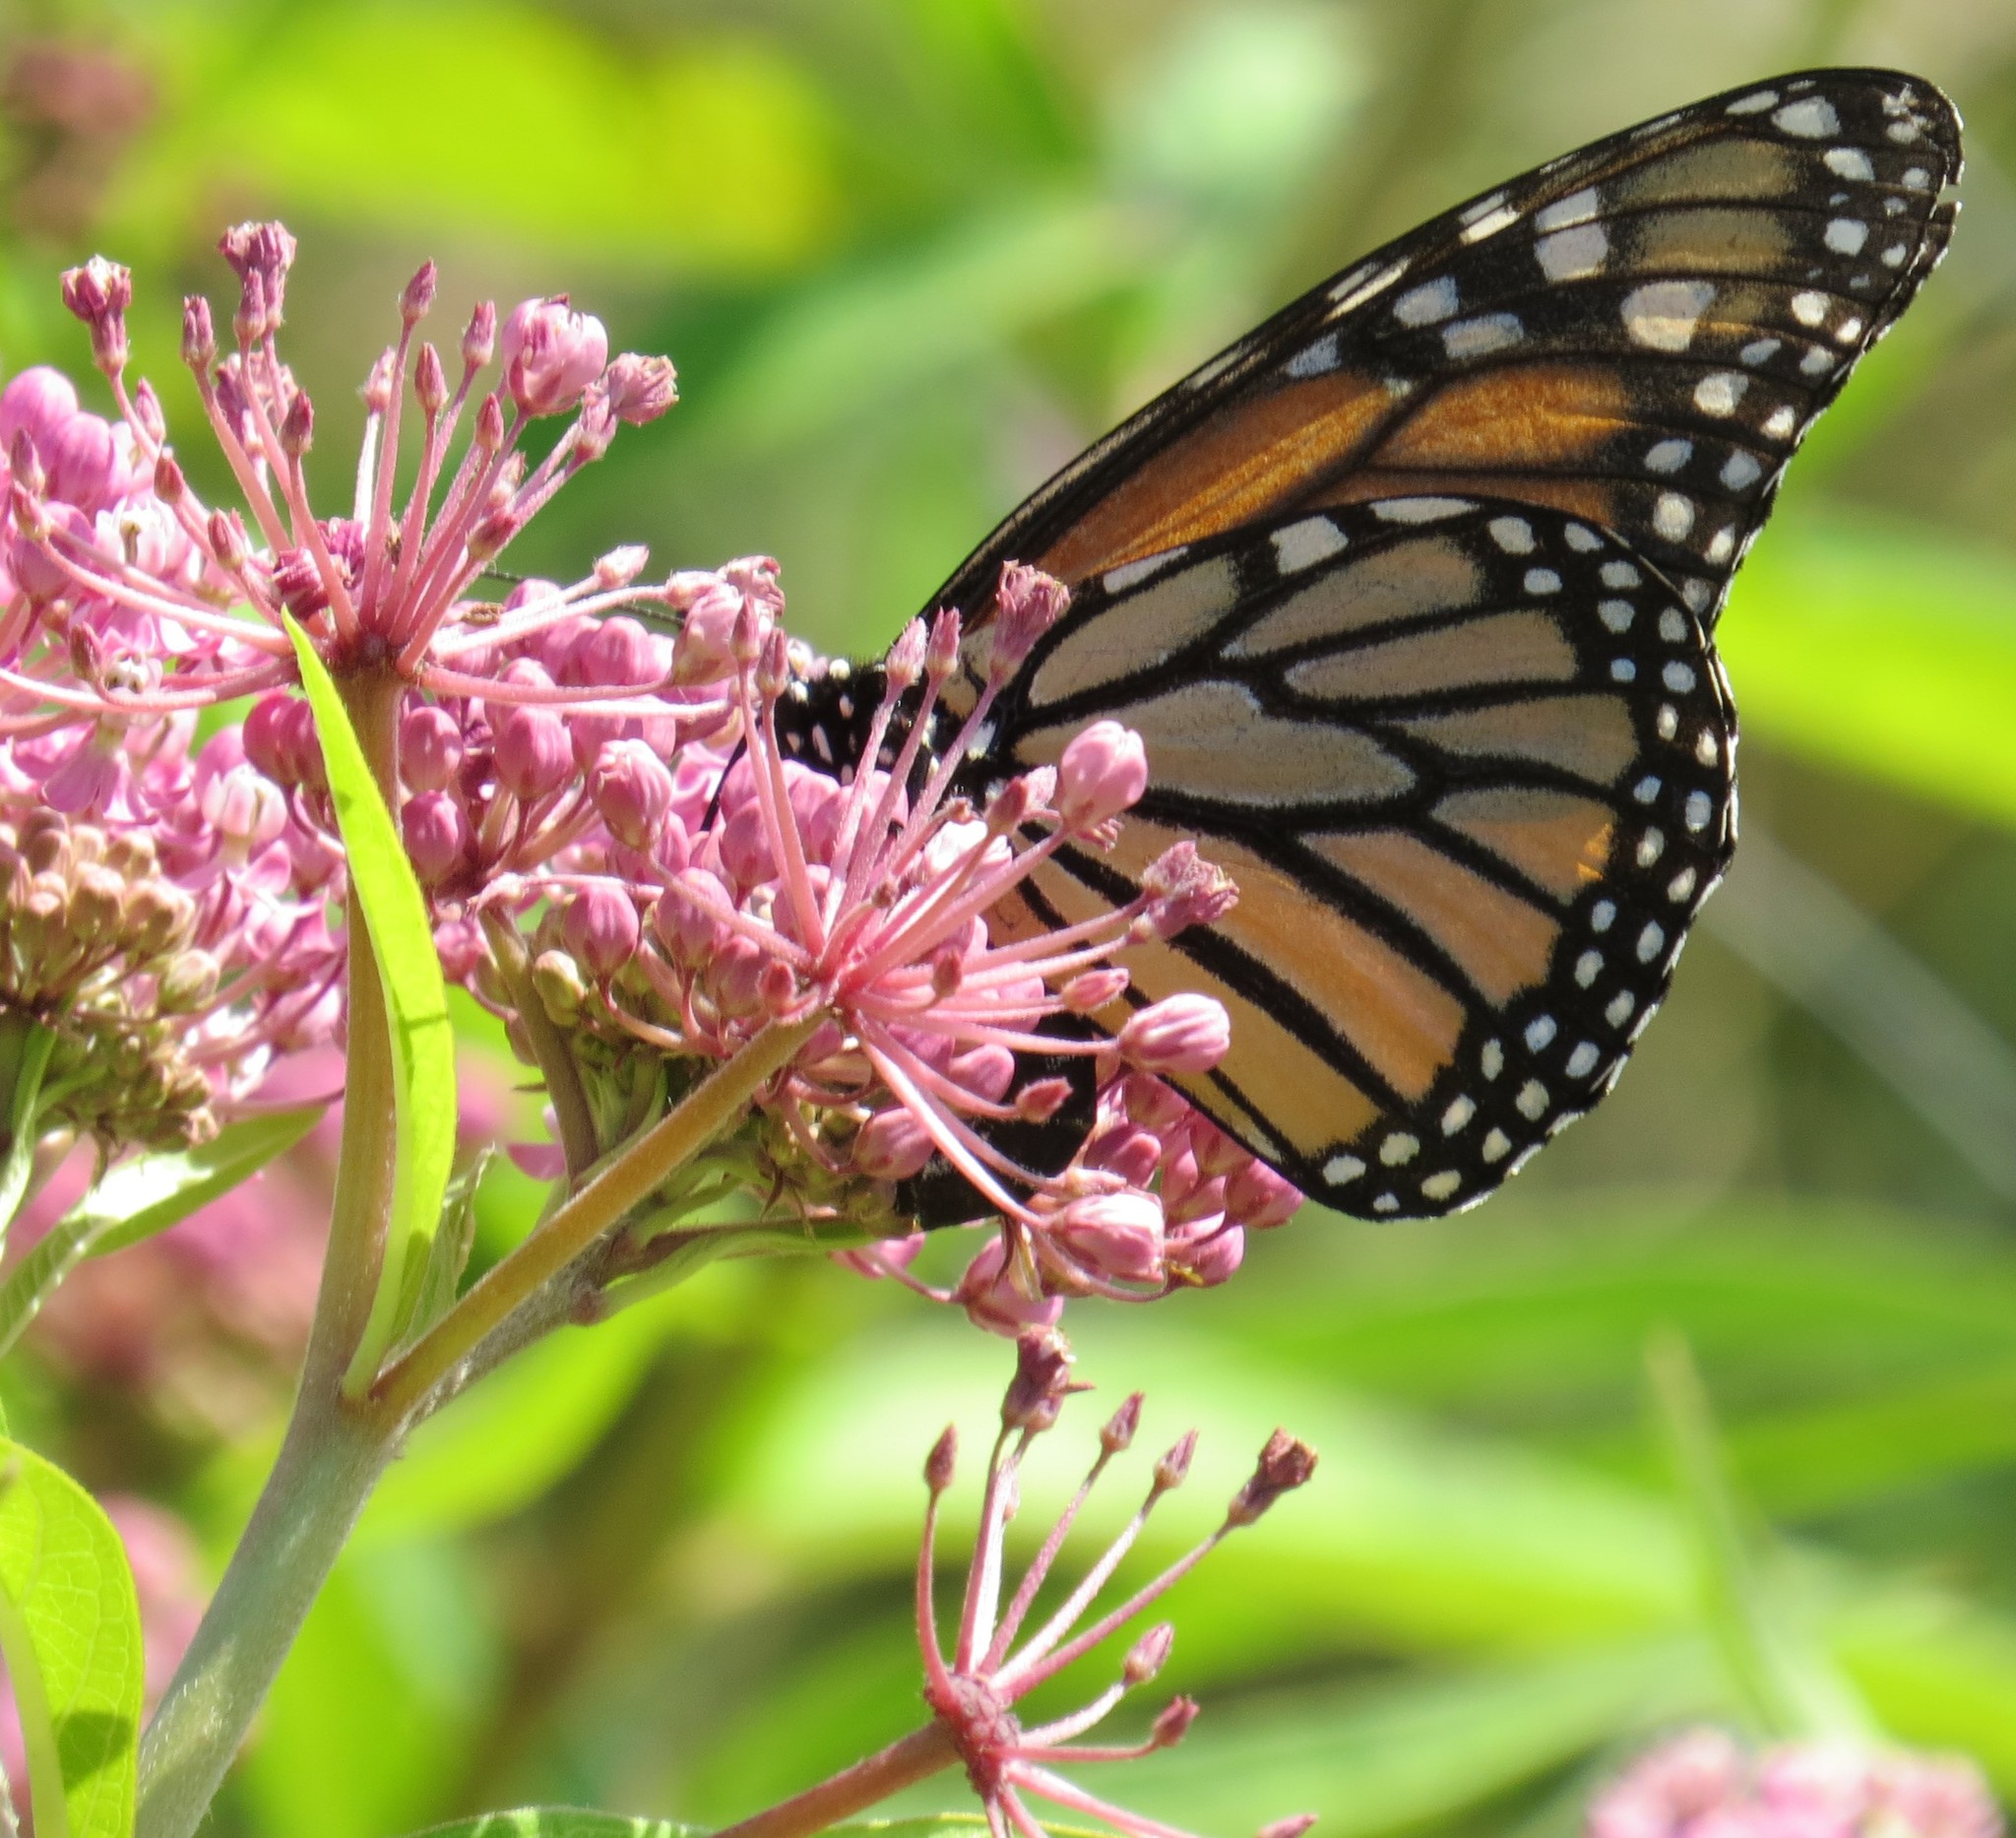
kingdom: Animalia
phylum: Arthropoda
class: Insecta
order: Lepidoptera
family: Nymphalidae
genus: Danaus
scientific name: Danaus plexippus
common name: Monarch
